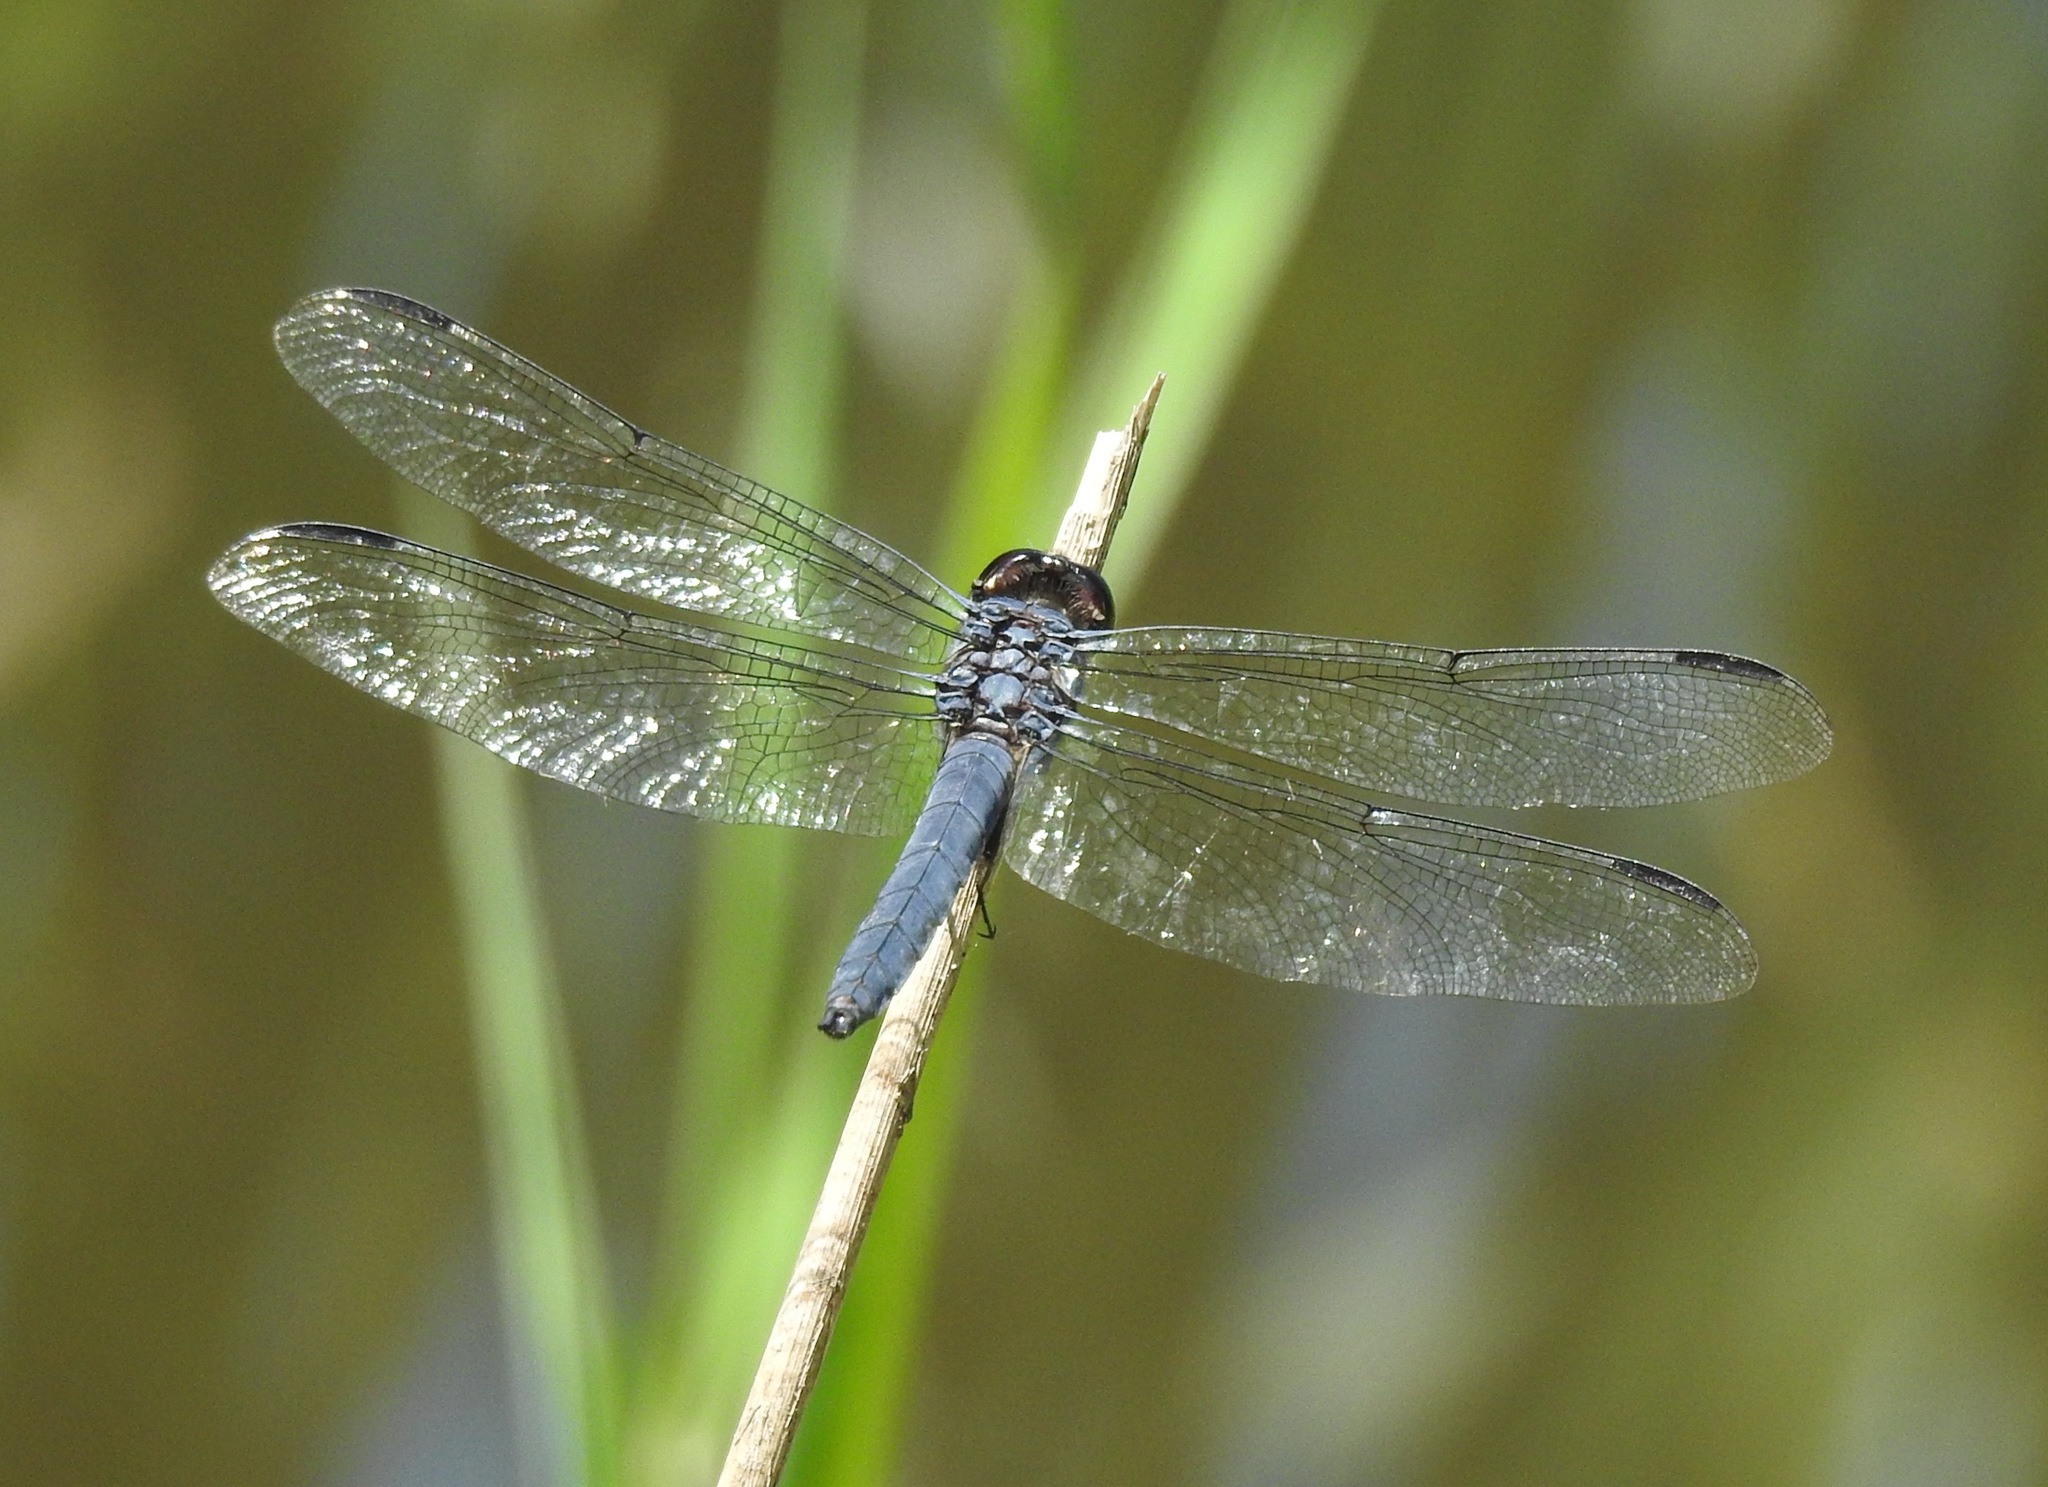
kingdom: Animalia
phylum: Arthropoda
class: Insecta
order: Odonata
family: Libellulidae
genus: Libellula
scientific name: Libellula incesta
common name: Slaty skimmer
